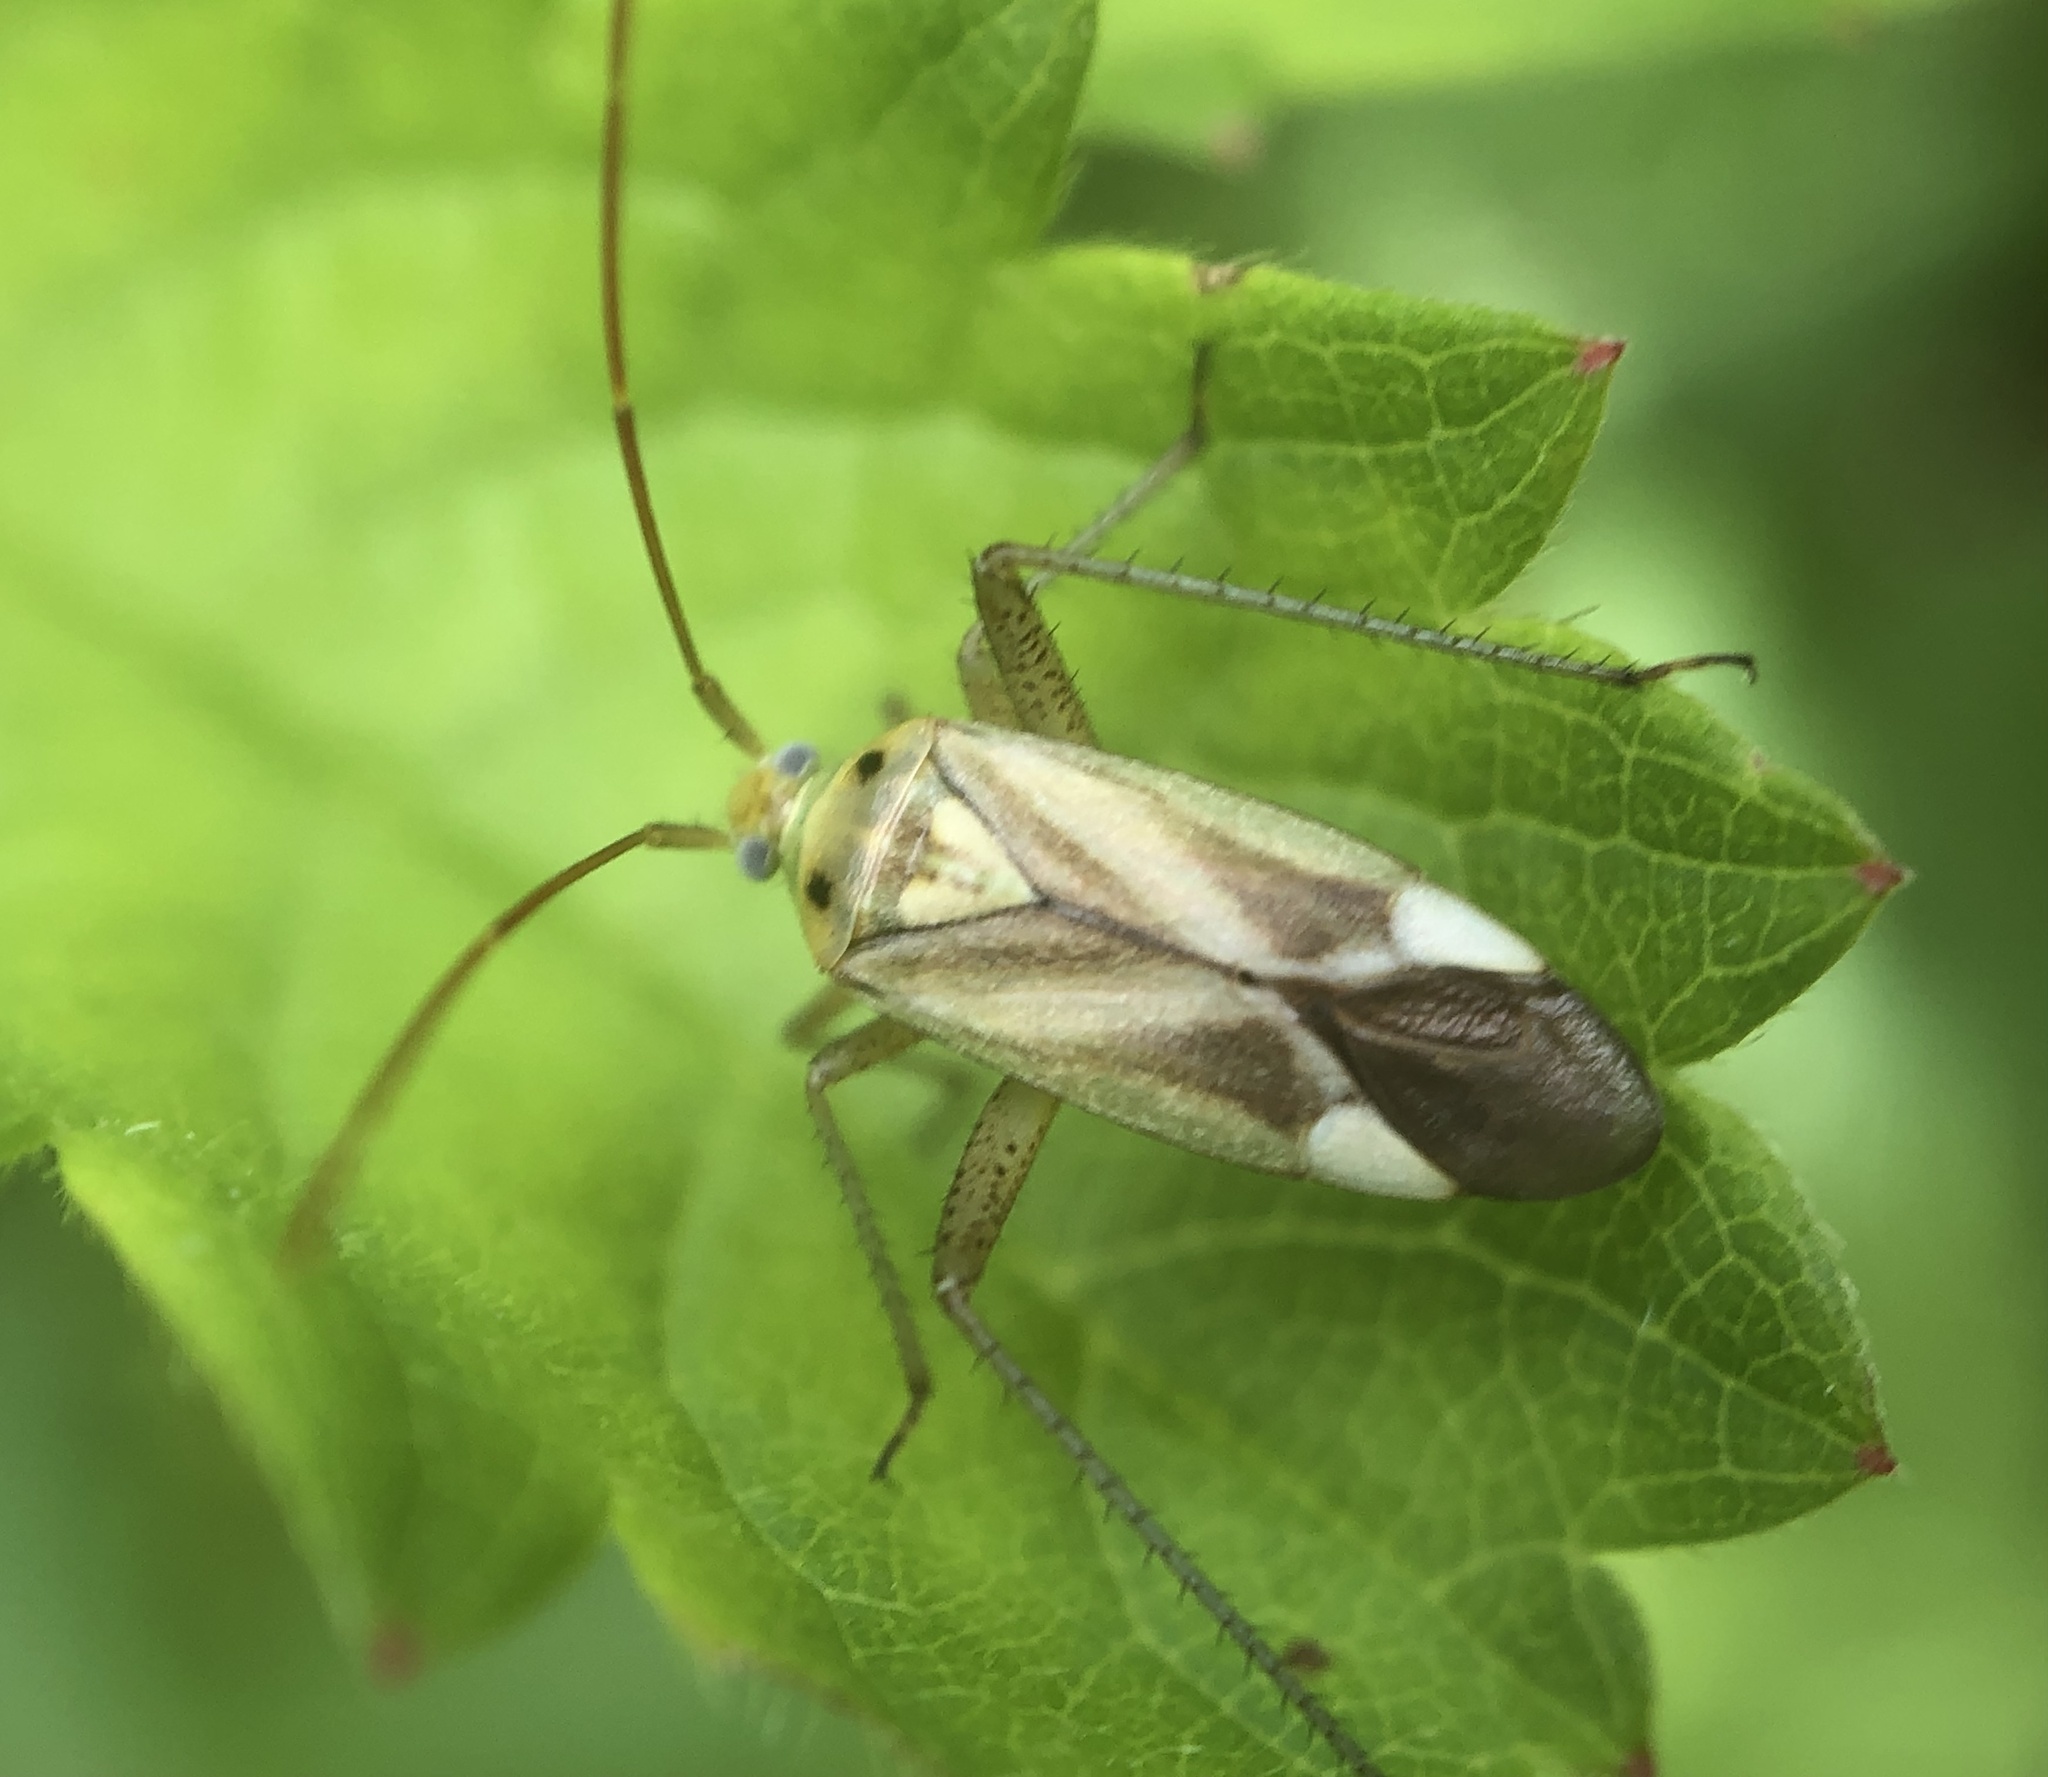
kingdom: Animalia
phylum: Arthropoda
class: Insecta
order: Hemiptera
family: Miridae
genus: Adelphocoris
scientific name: Adelphocoris lineolatus
